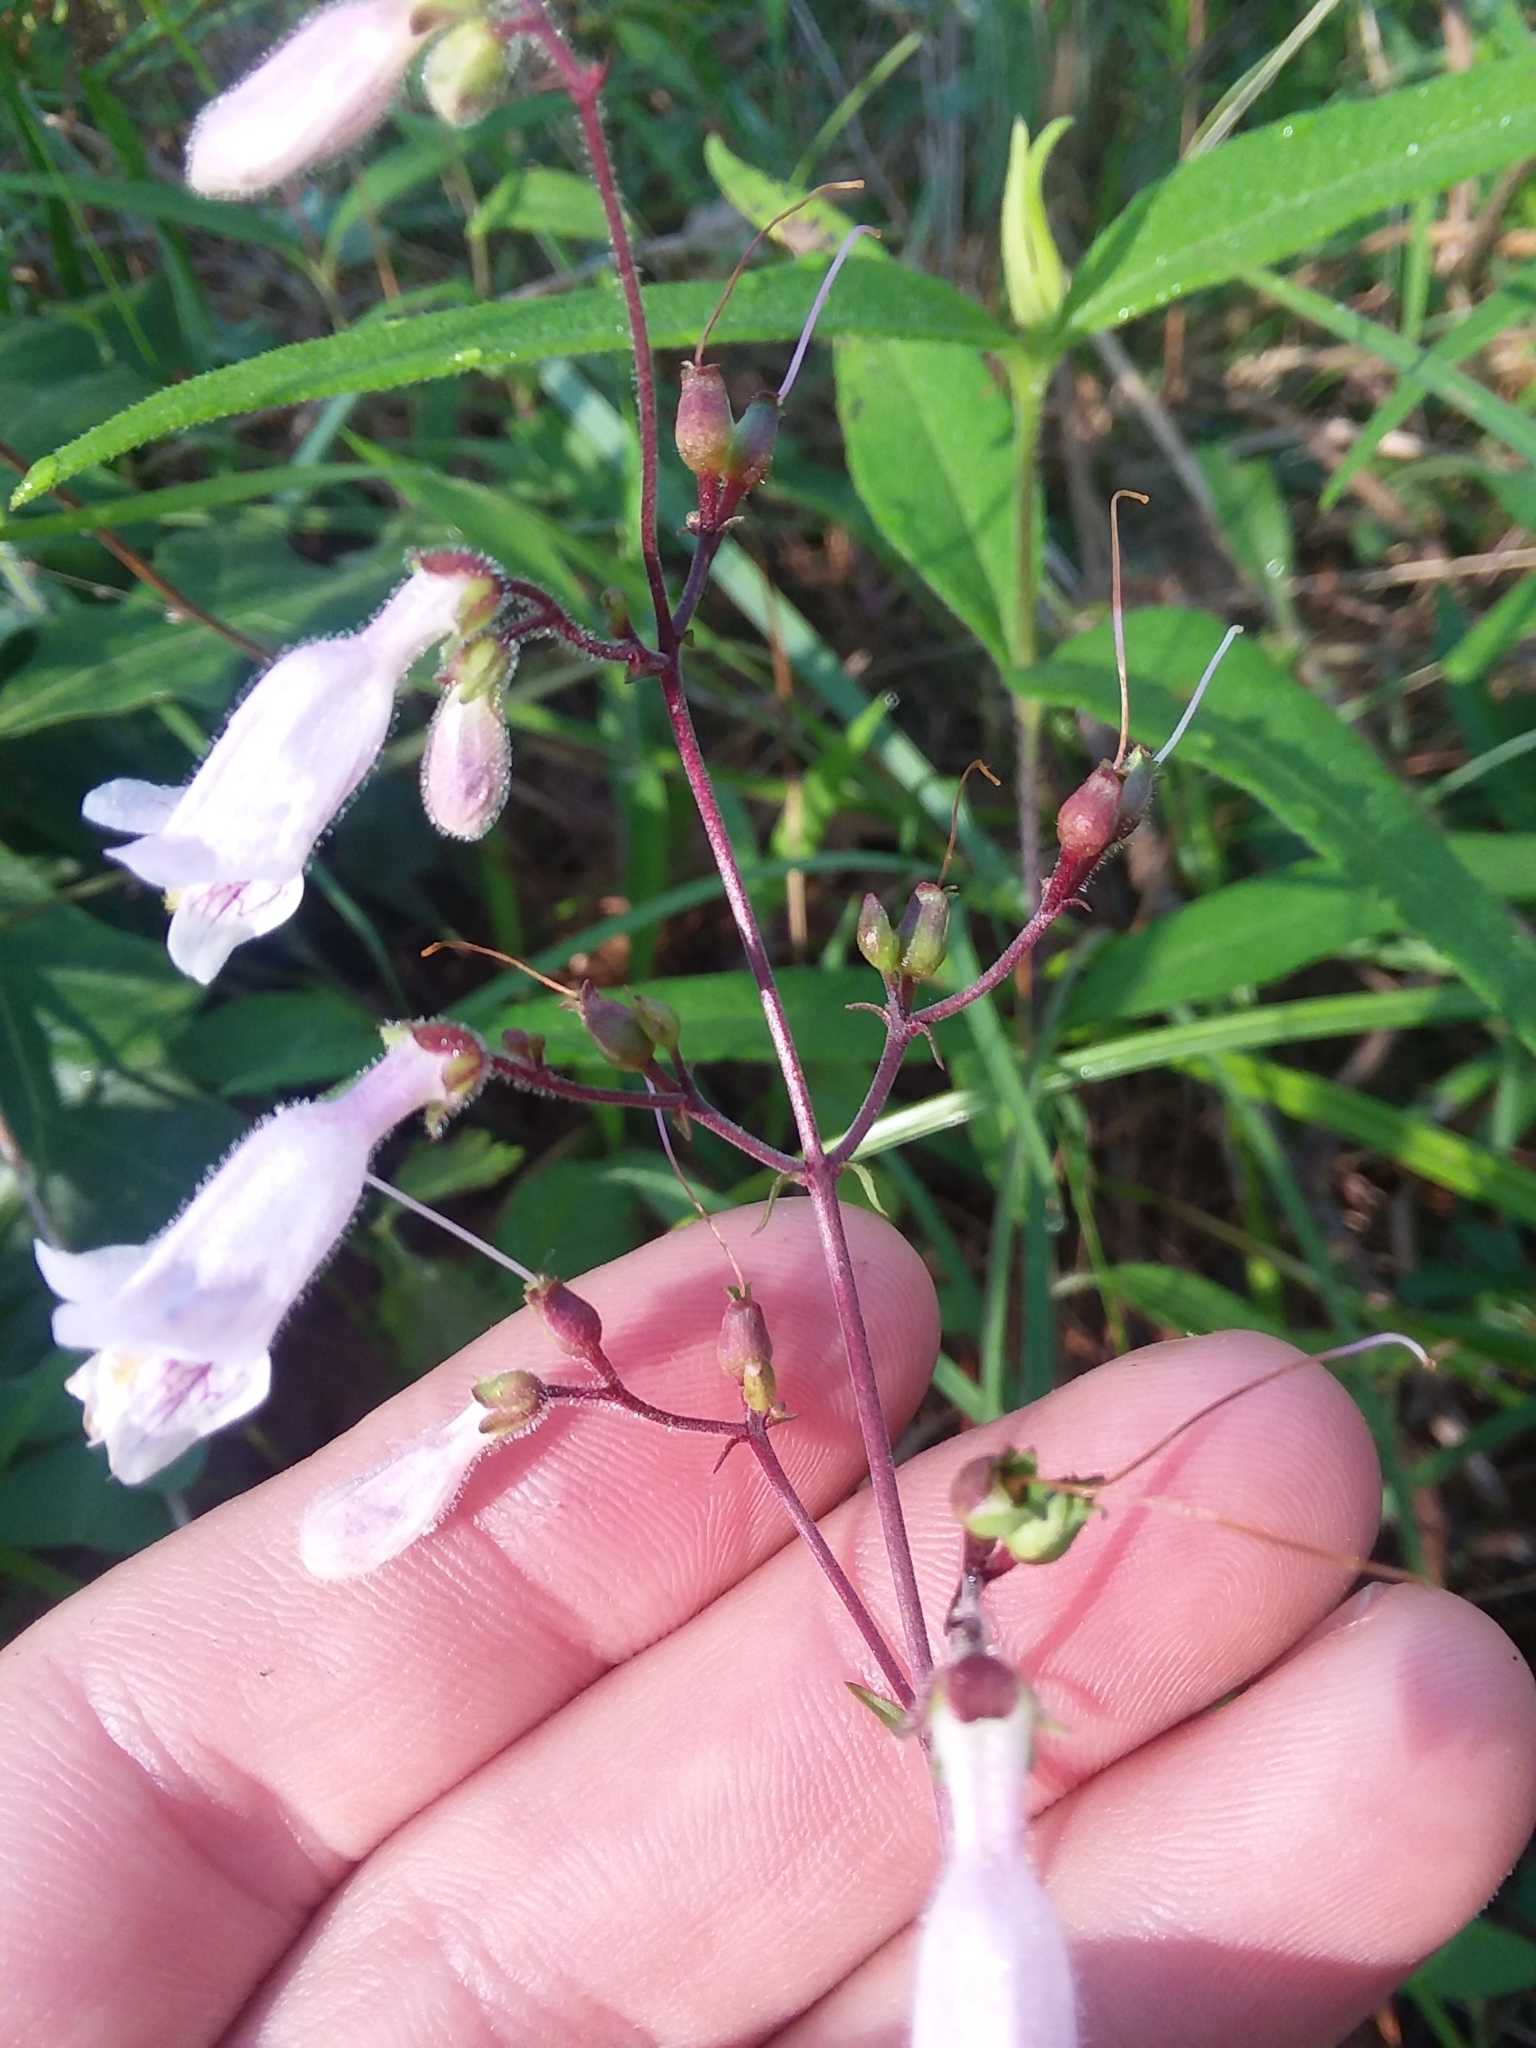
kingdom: Plantae
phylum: Tracheophyta
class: Magnoliopsida
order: Lamiales
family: Plantaginaceae
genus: Penstemon
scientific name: Penstemon laxiflorus
